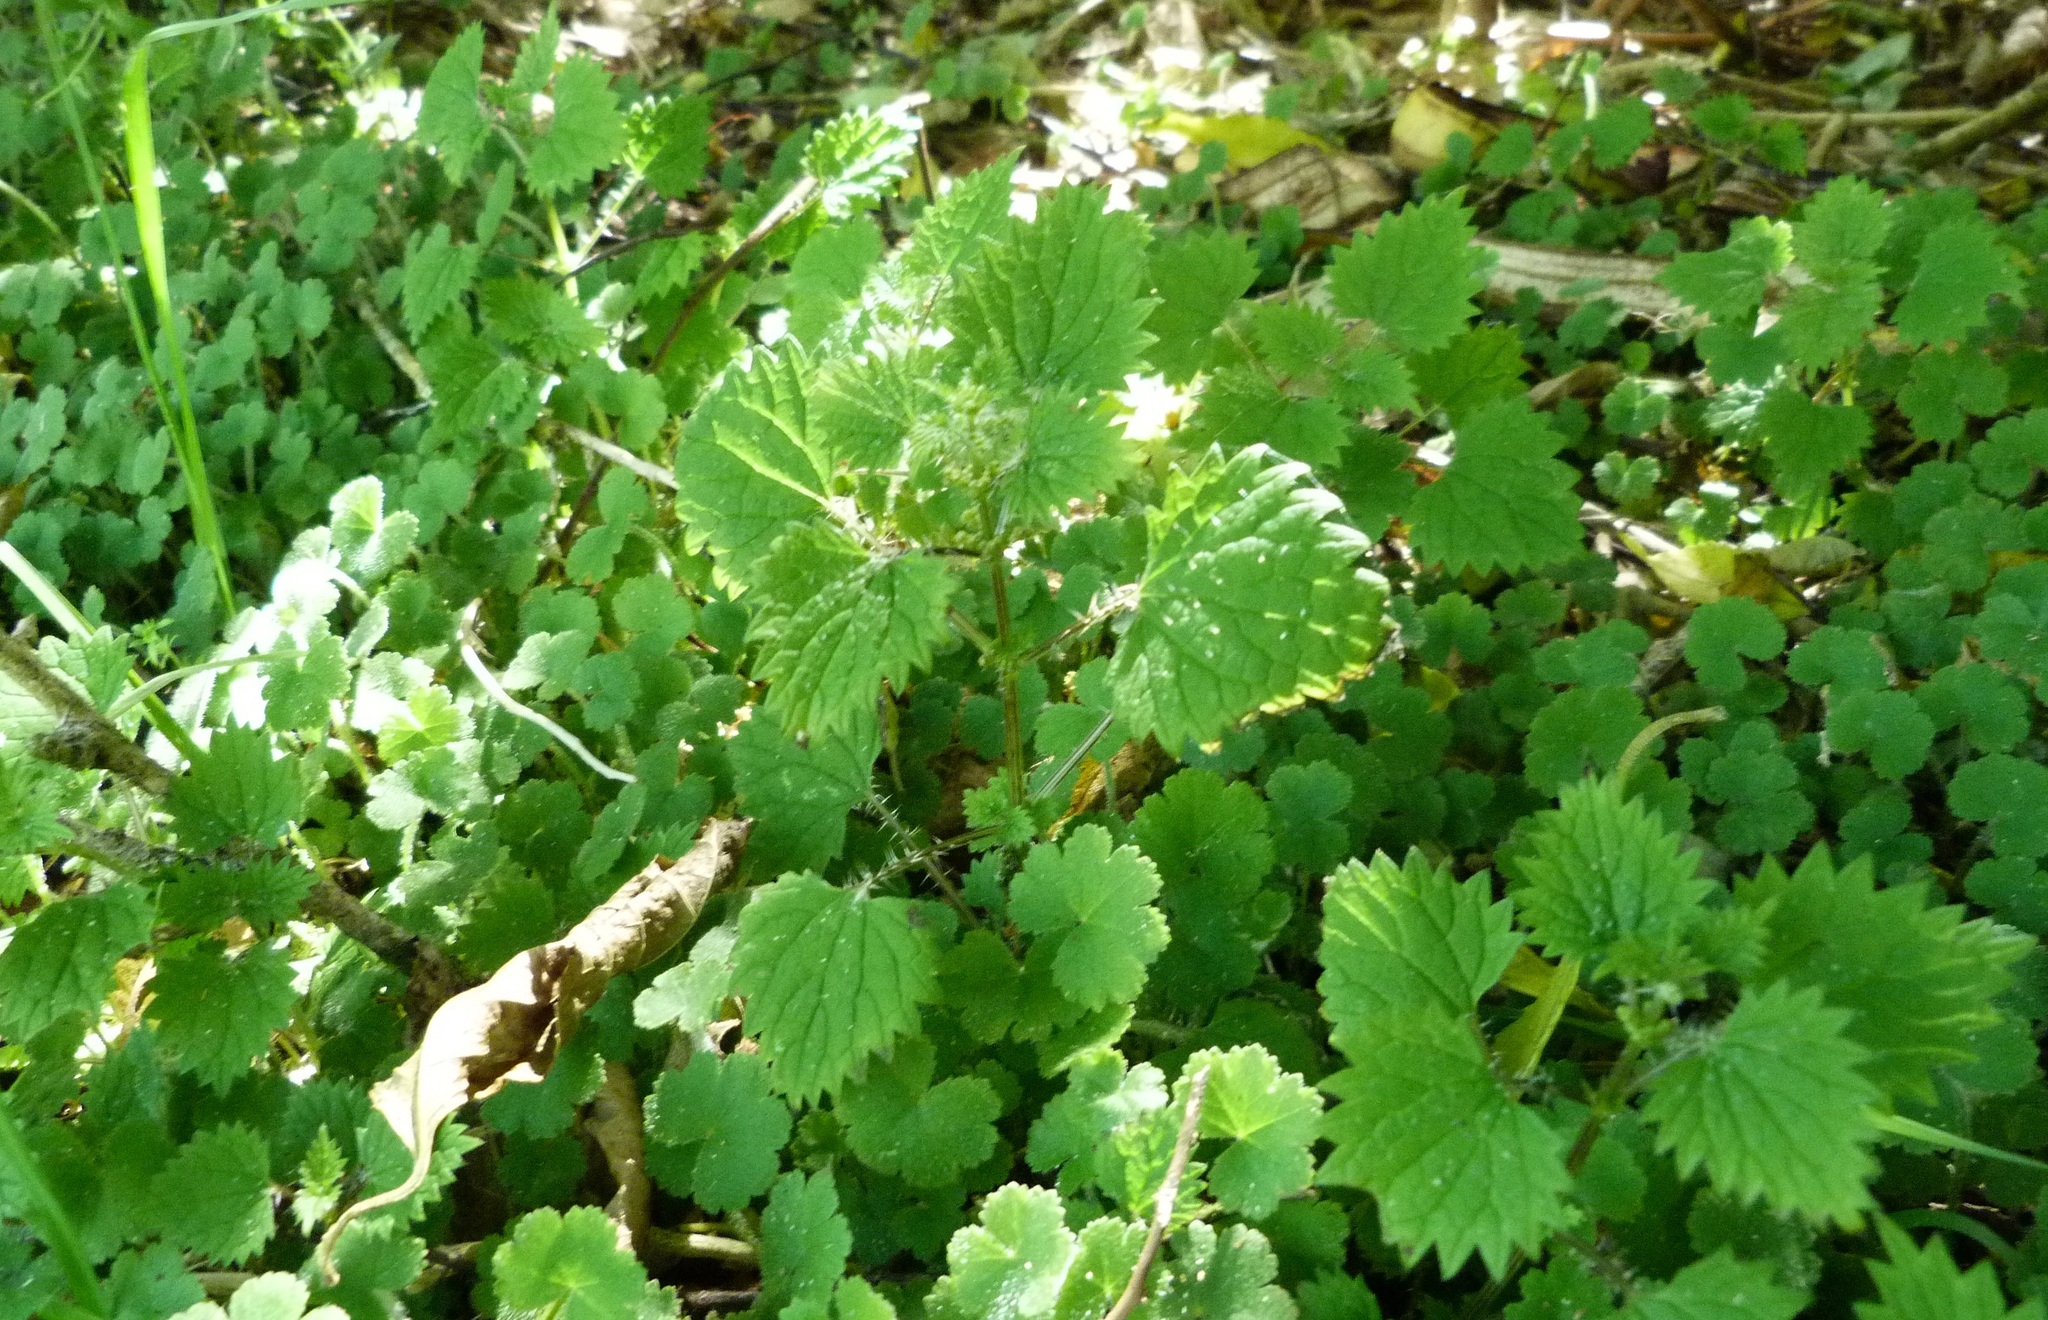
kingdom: Plantae
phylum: Tracheophyta
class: Magnoliopsida
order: Rosales
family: Urticaceae
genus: Urtica
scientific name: Urtica sykesii
